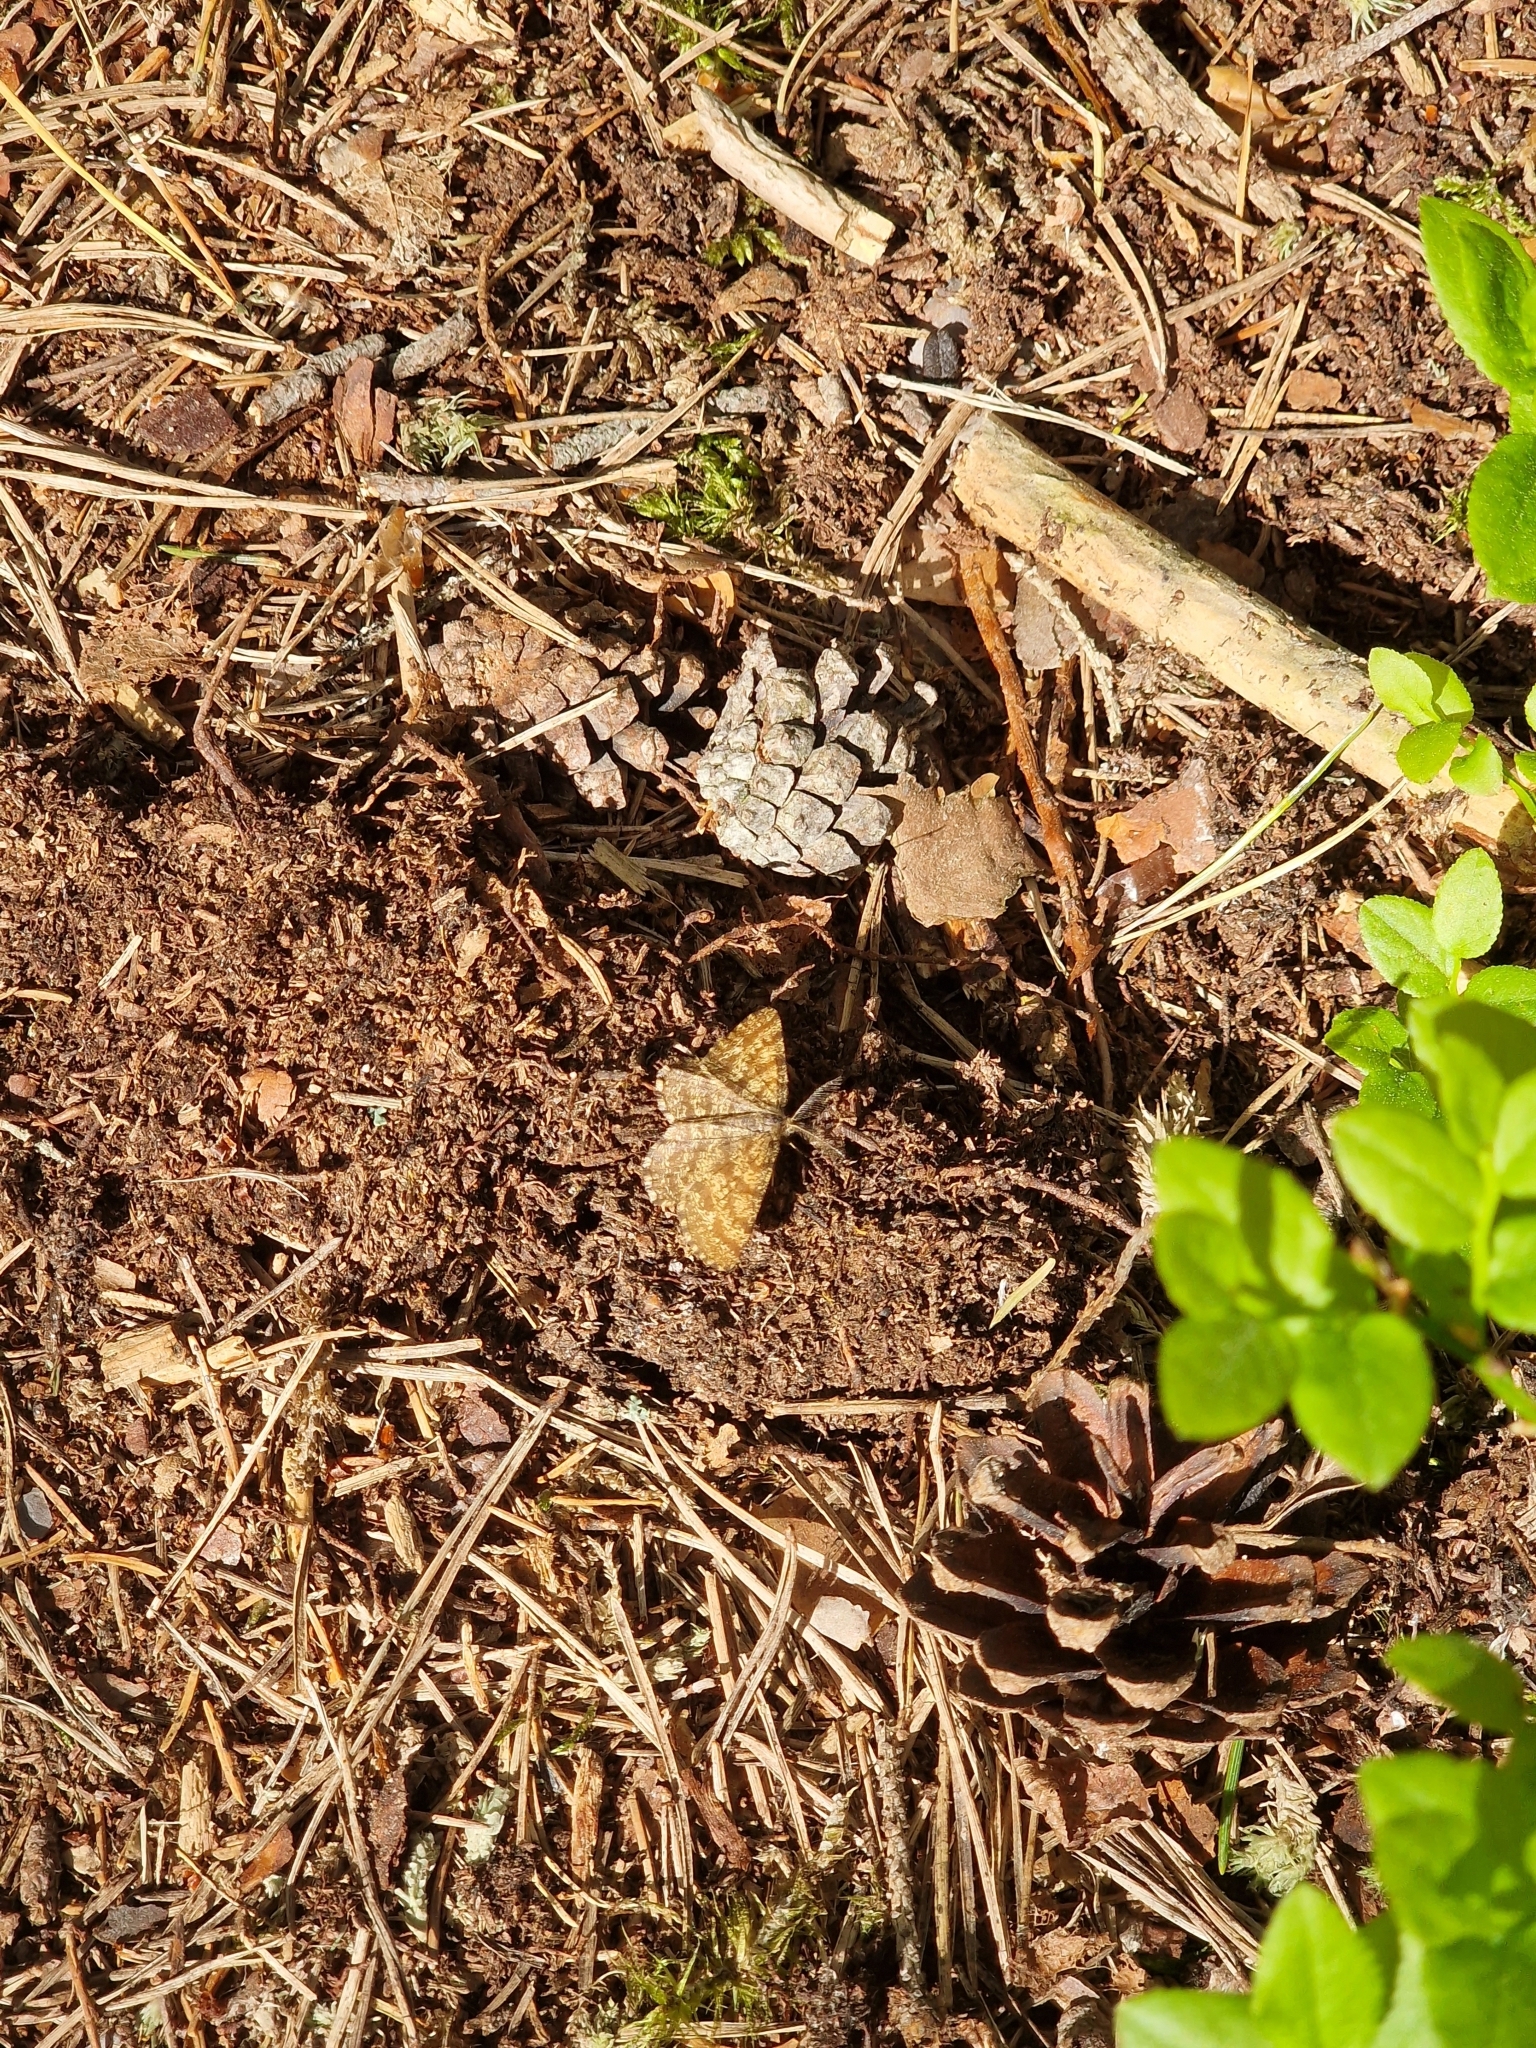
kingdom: Animalia
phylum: Arthropoda
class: Insecta
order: Lepidoptera
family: Geometridae
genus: Ematurga
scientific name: Ematurga atomaria
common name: Common heath
